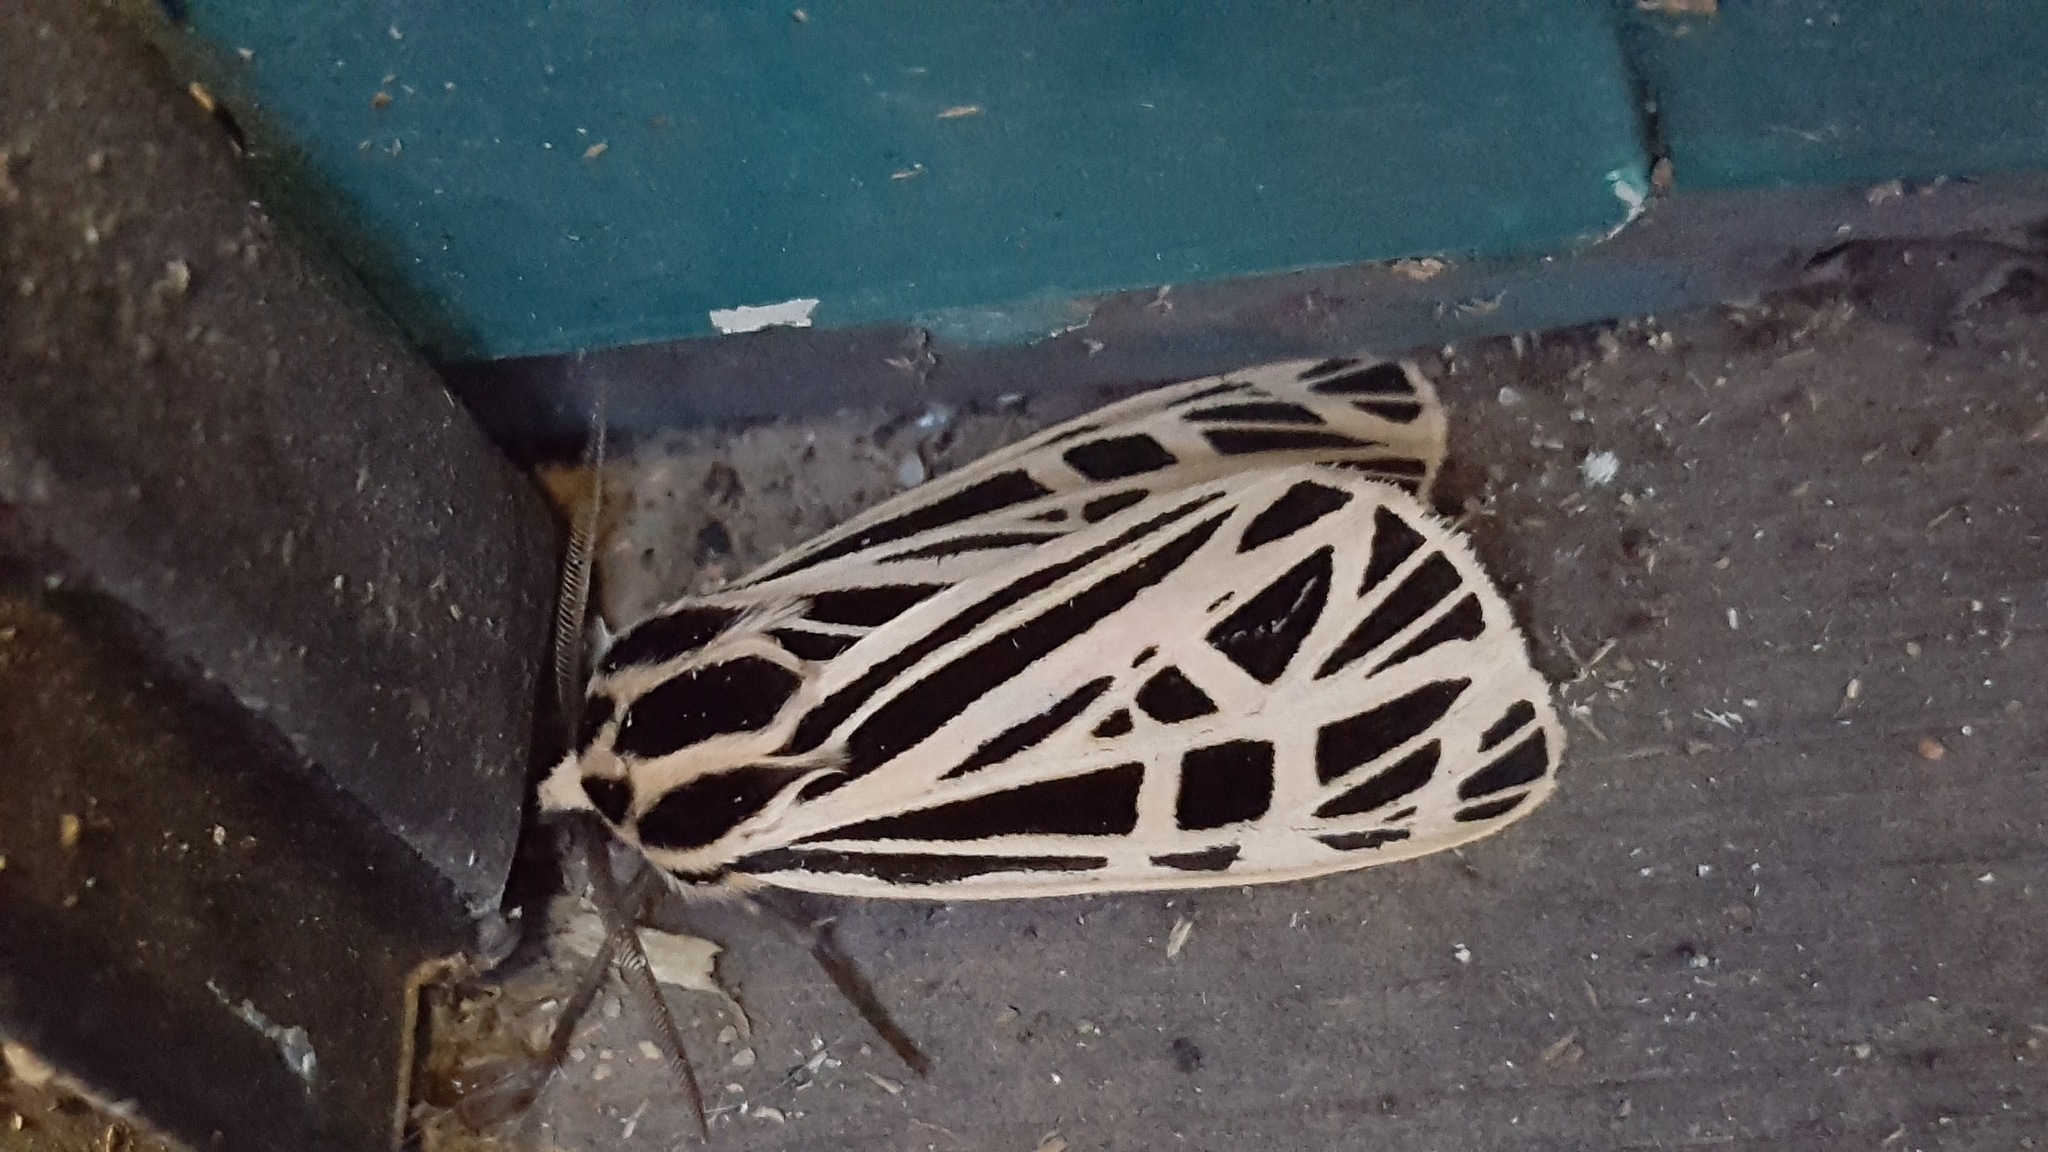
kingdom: Animalia
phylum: Arthropoda
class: Insecta
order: Lepidoptera
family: Erebidae
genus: Grammia
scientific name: Grammia virgo
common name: Virgin tiger moth
